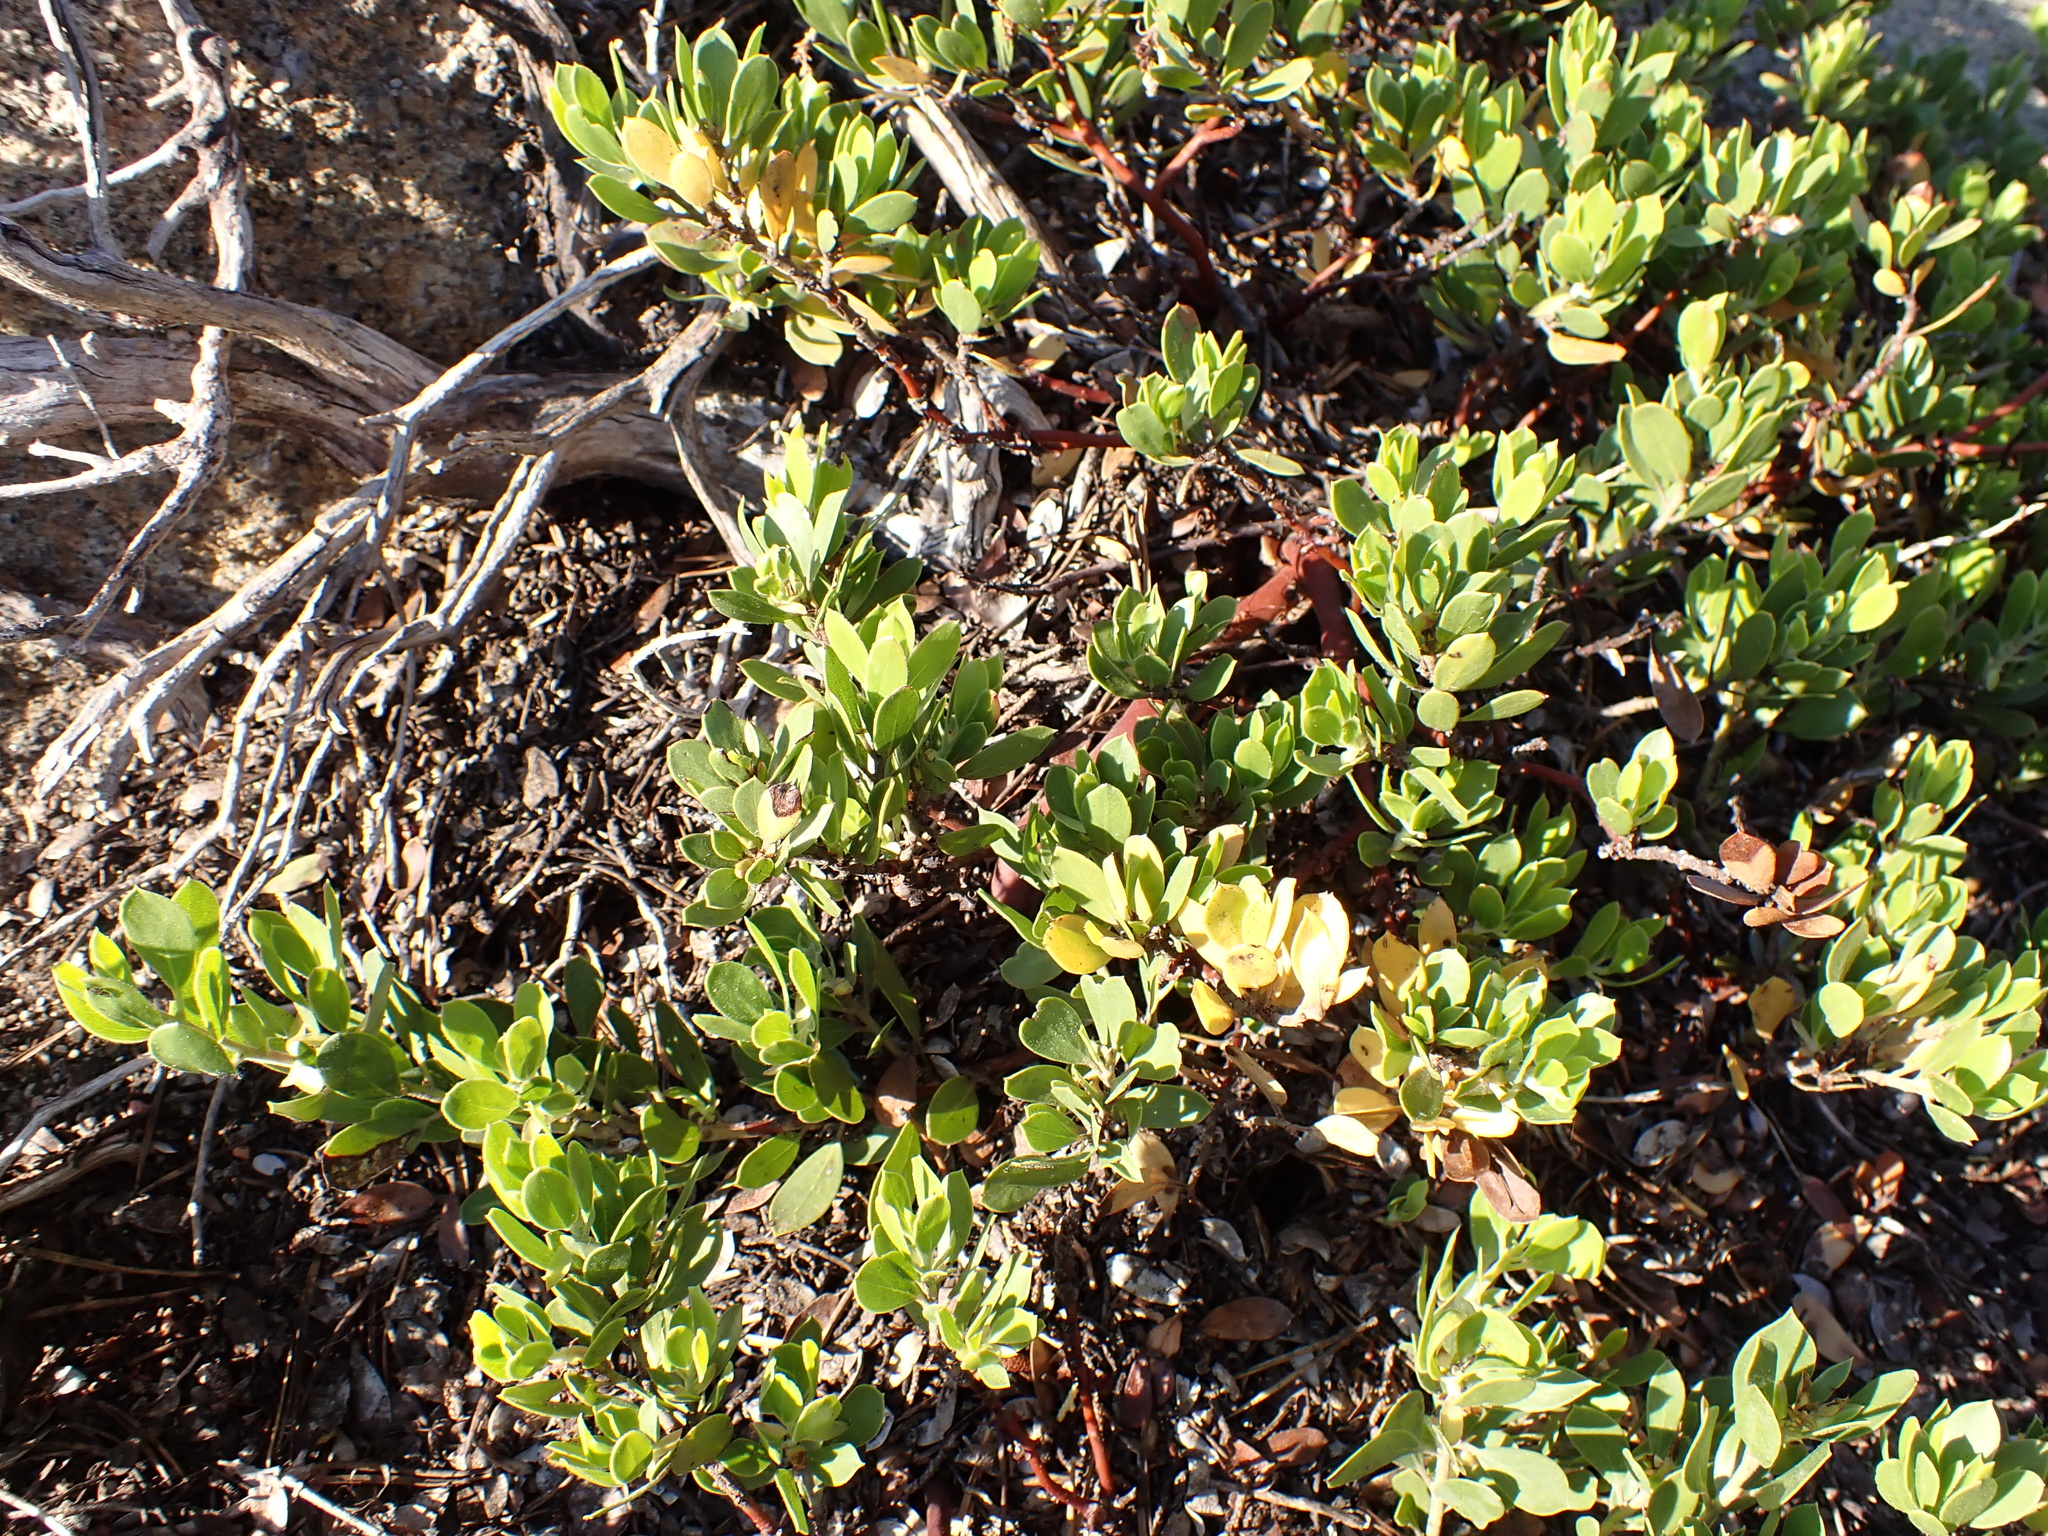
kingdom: Plantae
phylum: Tracheophyta
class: Magnoliopsida
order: Ericales
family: Ericaceae
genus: Arctostaphylos
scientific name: Arctostaphylos nevadensis
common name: Pinemat manzanita
